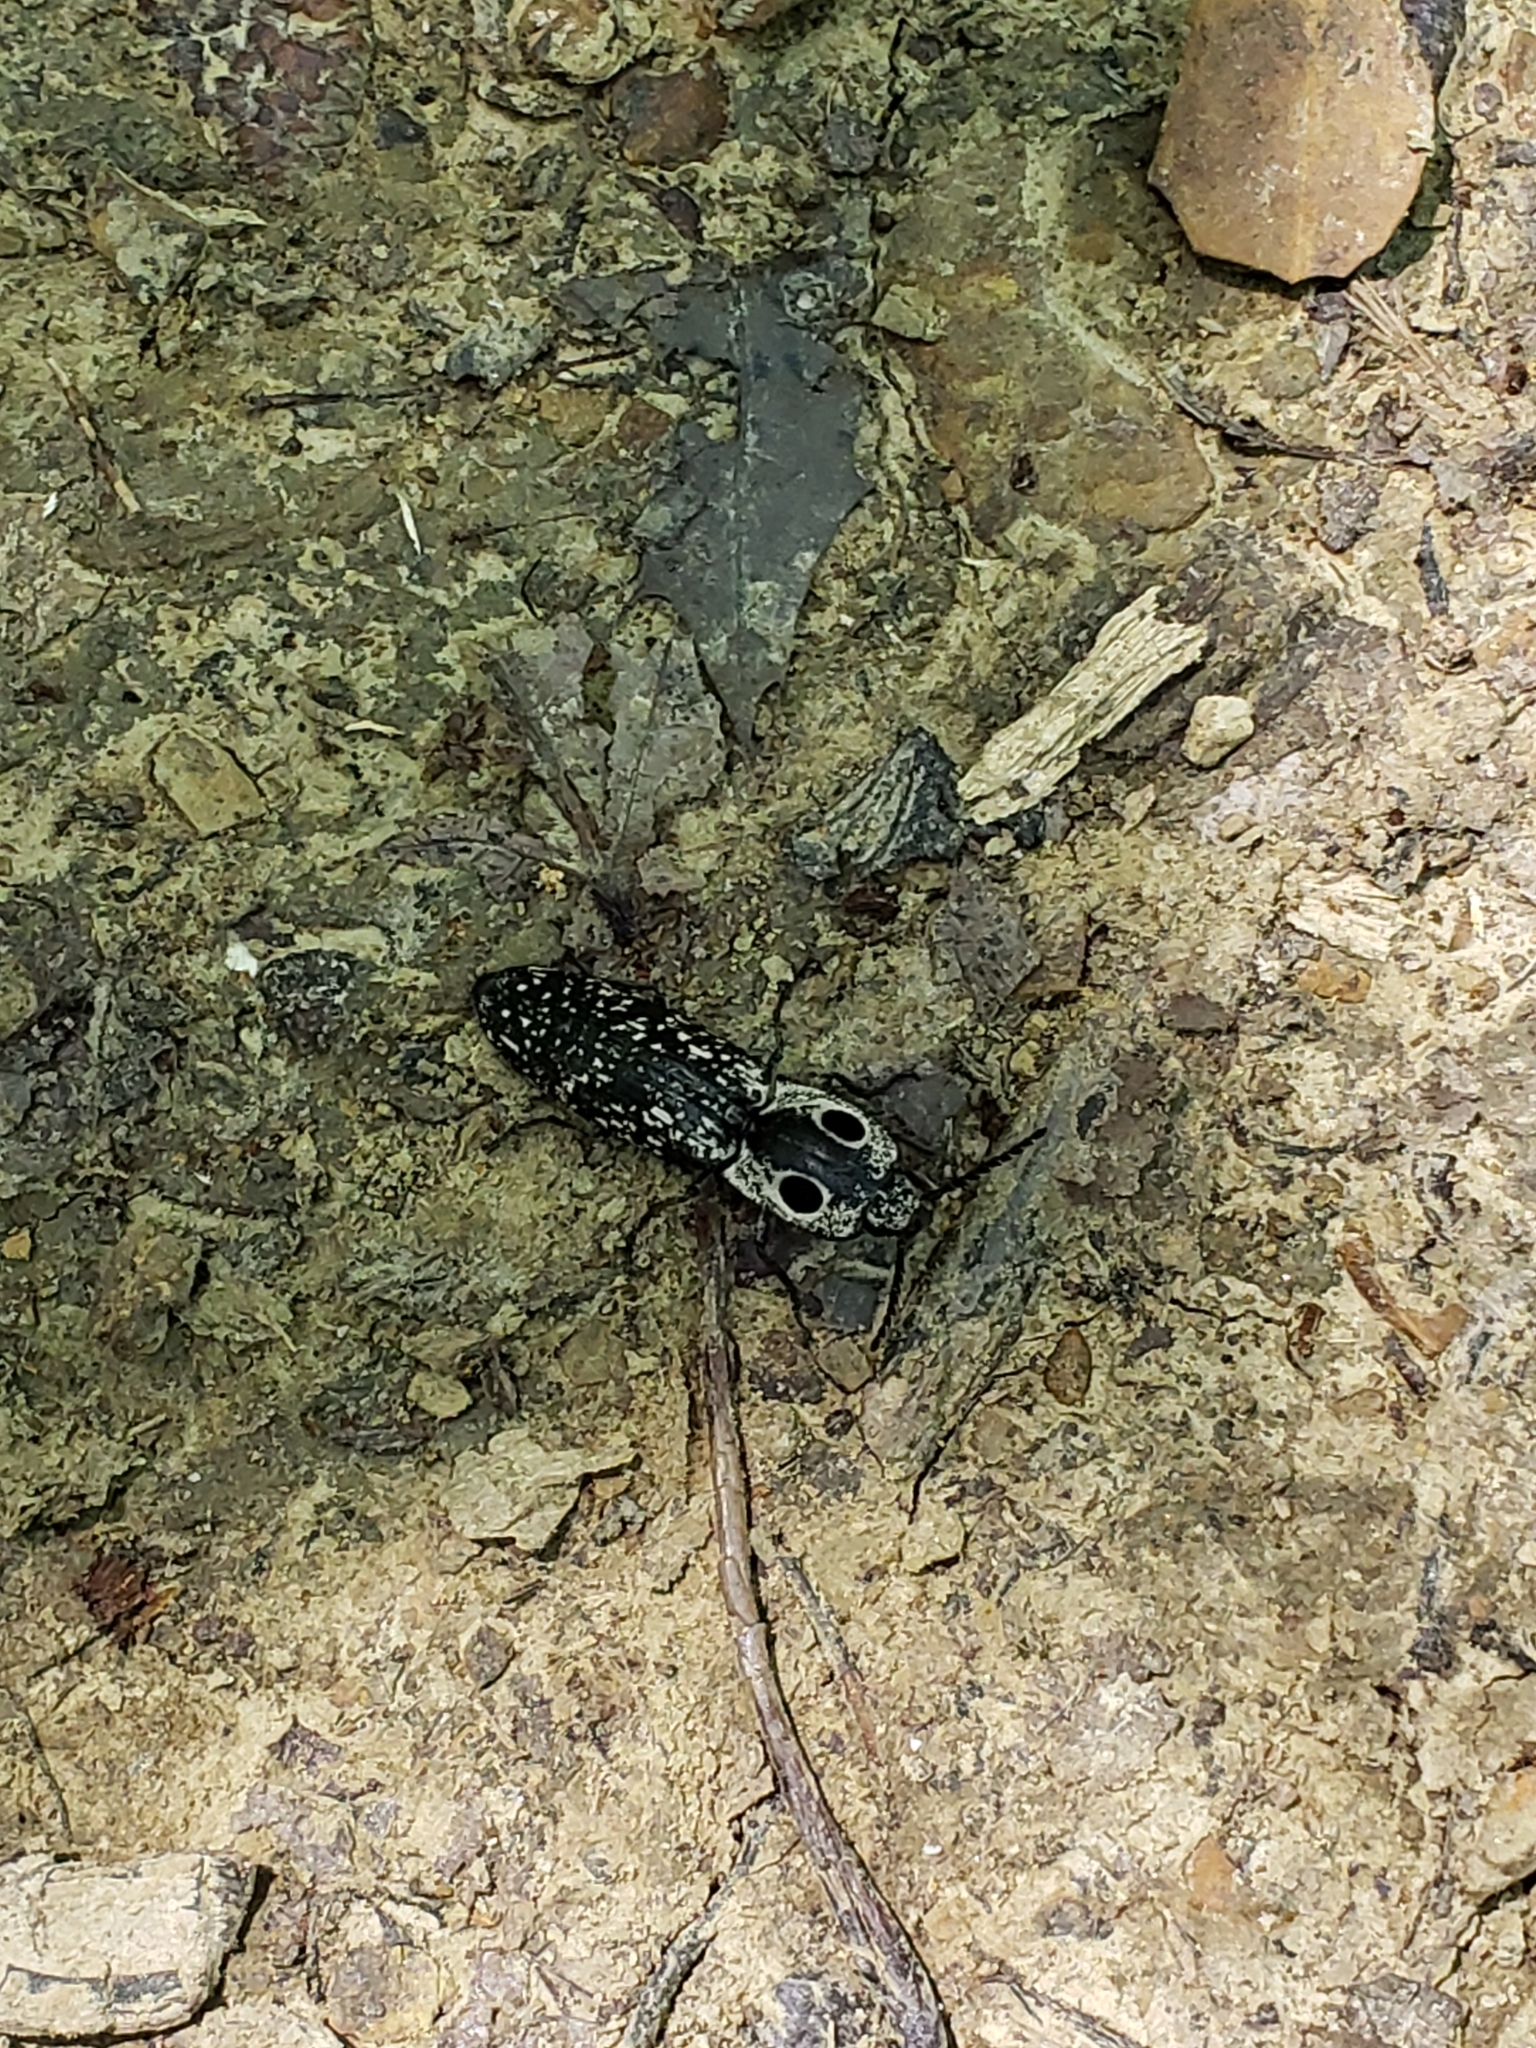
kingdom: Animalia
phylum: Arthropoda
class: Insecta
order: Coleoptera
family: Elateridae
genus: Alaus
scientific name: Alaus oculatus
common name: Eastern eyed click beetle
